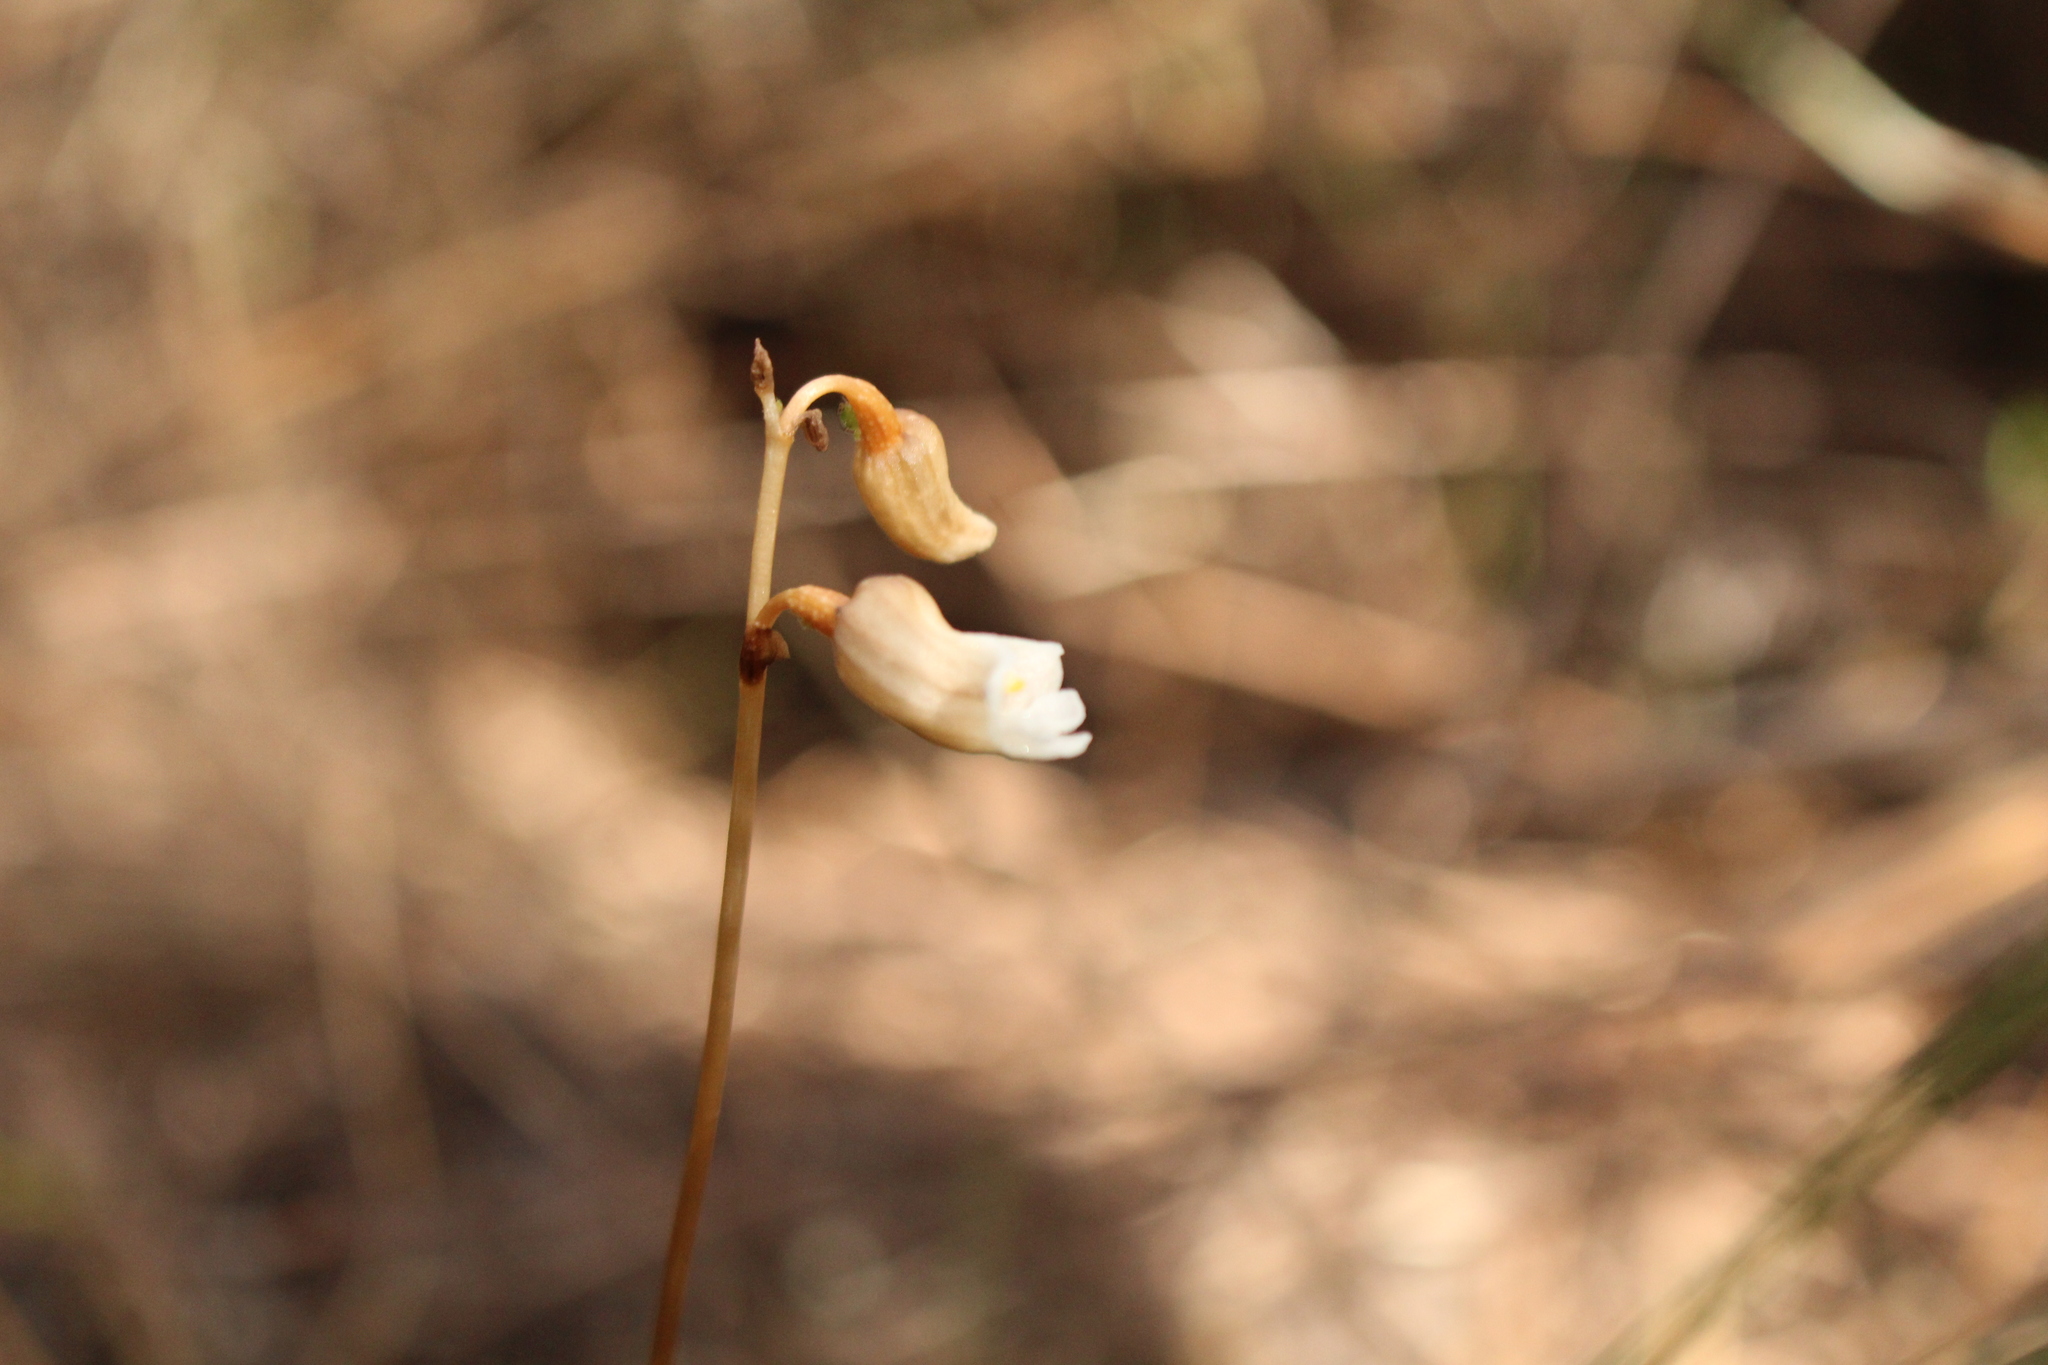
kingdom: Plantae
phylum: Tracheophyta
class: Liliopsida
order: Asparagales
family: Orchidaceae
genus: Gastrodia
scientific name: Gastrodia lacista
